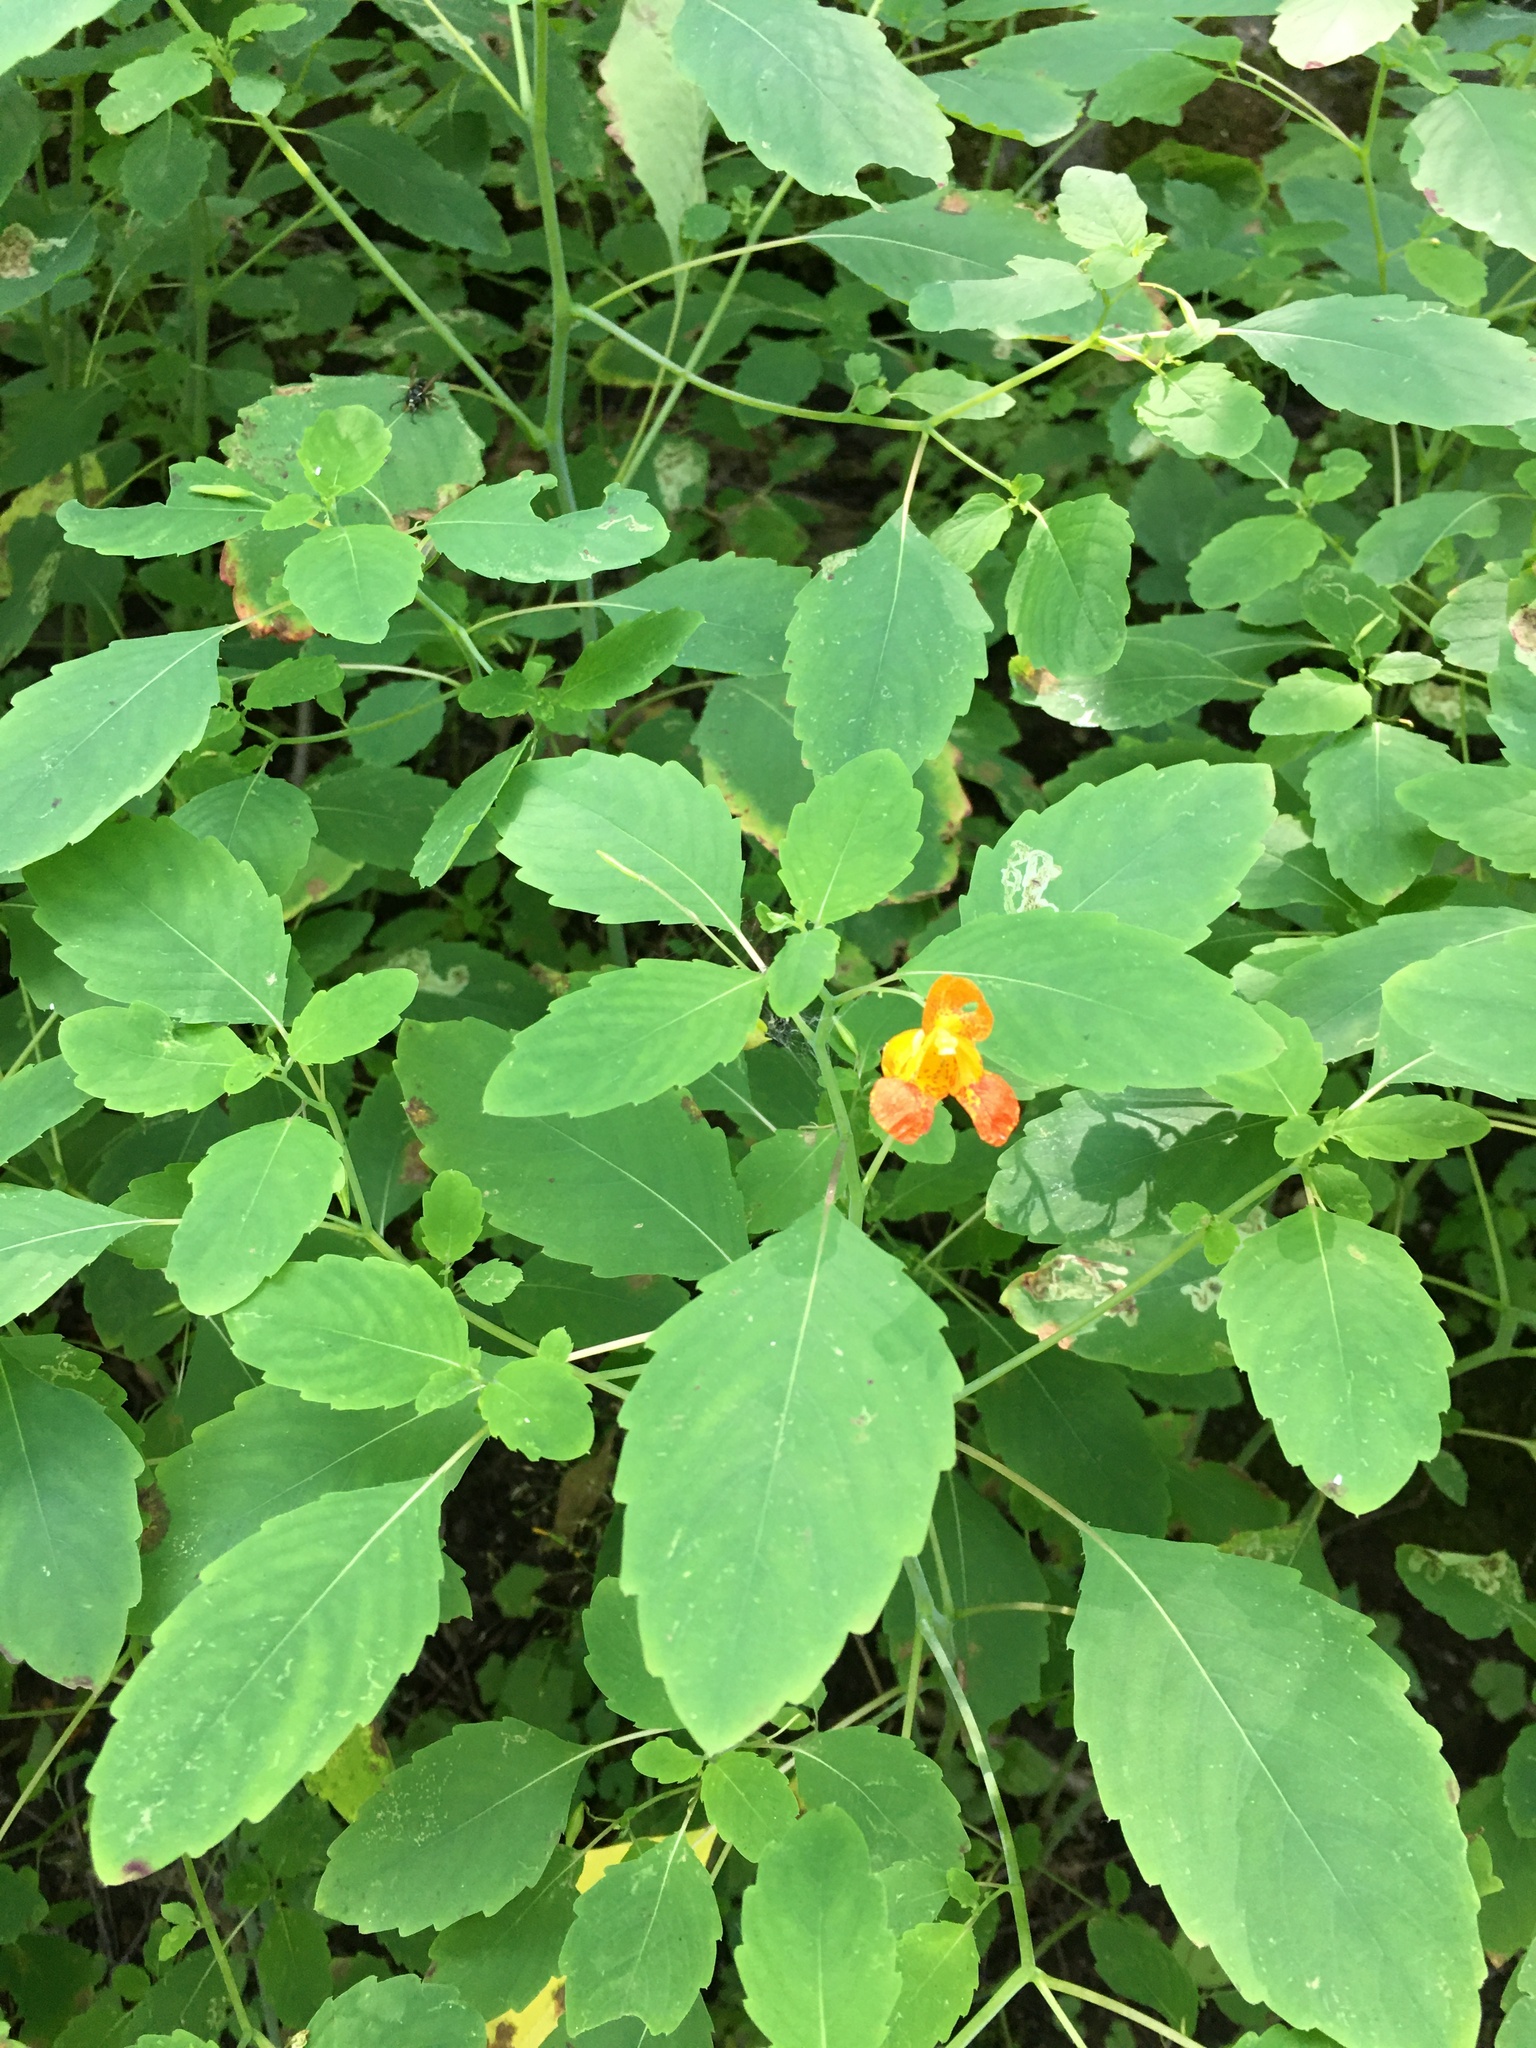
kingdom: Plantae
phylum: Tracheophyta
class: Magnoliopsida
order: Ericales
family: Balsaminaceae
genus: Impatiens
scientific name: Impatiens capensis
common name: Orange balsam
